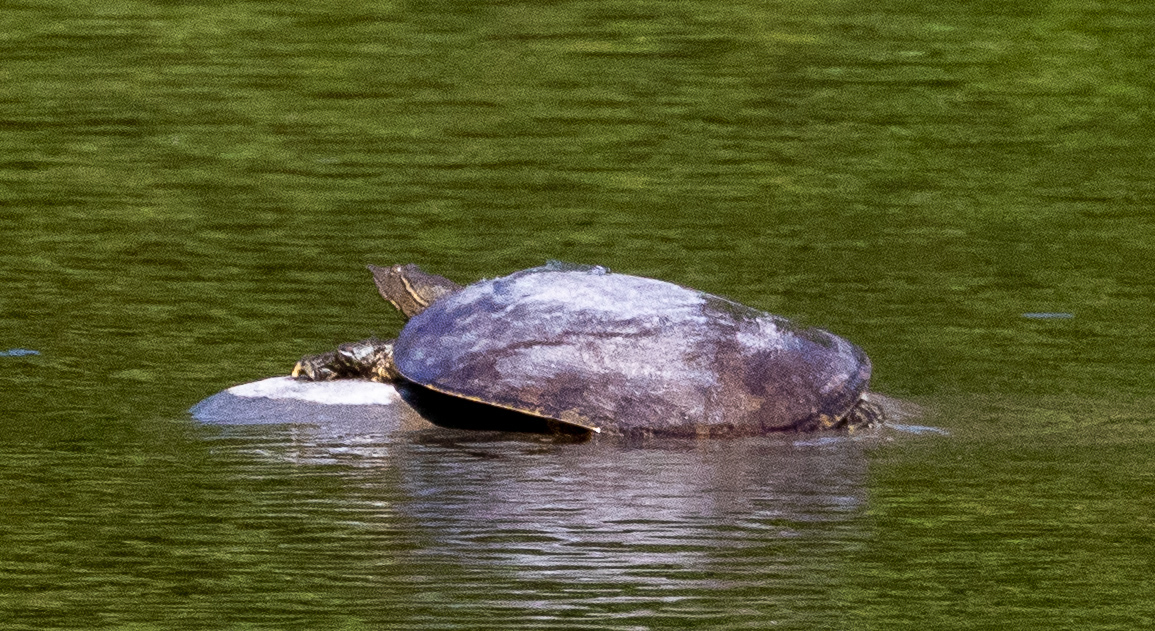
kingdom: Animalia
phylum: Chordata
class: Testudines
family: Trionychidae
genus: Apalone
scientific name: Apalone spinifera
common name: Spiny softshell turtle
